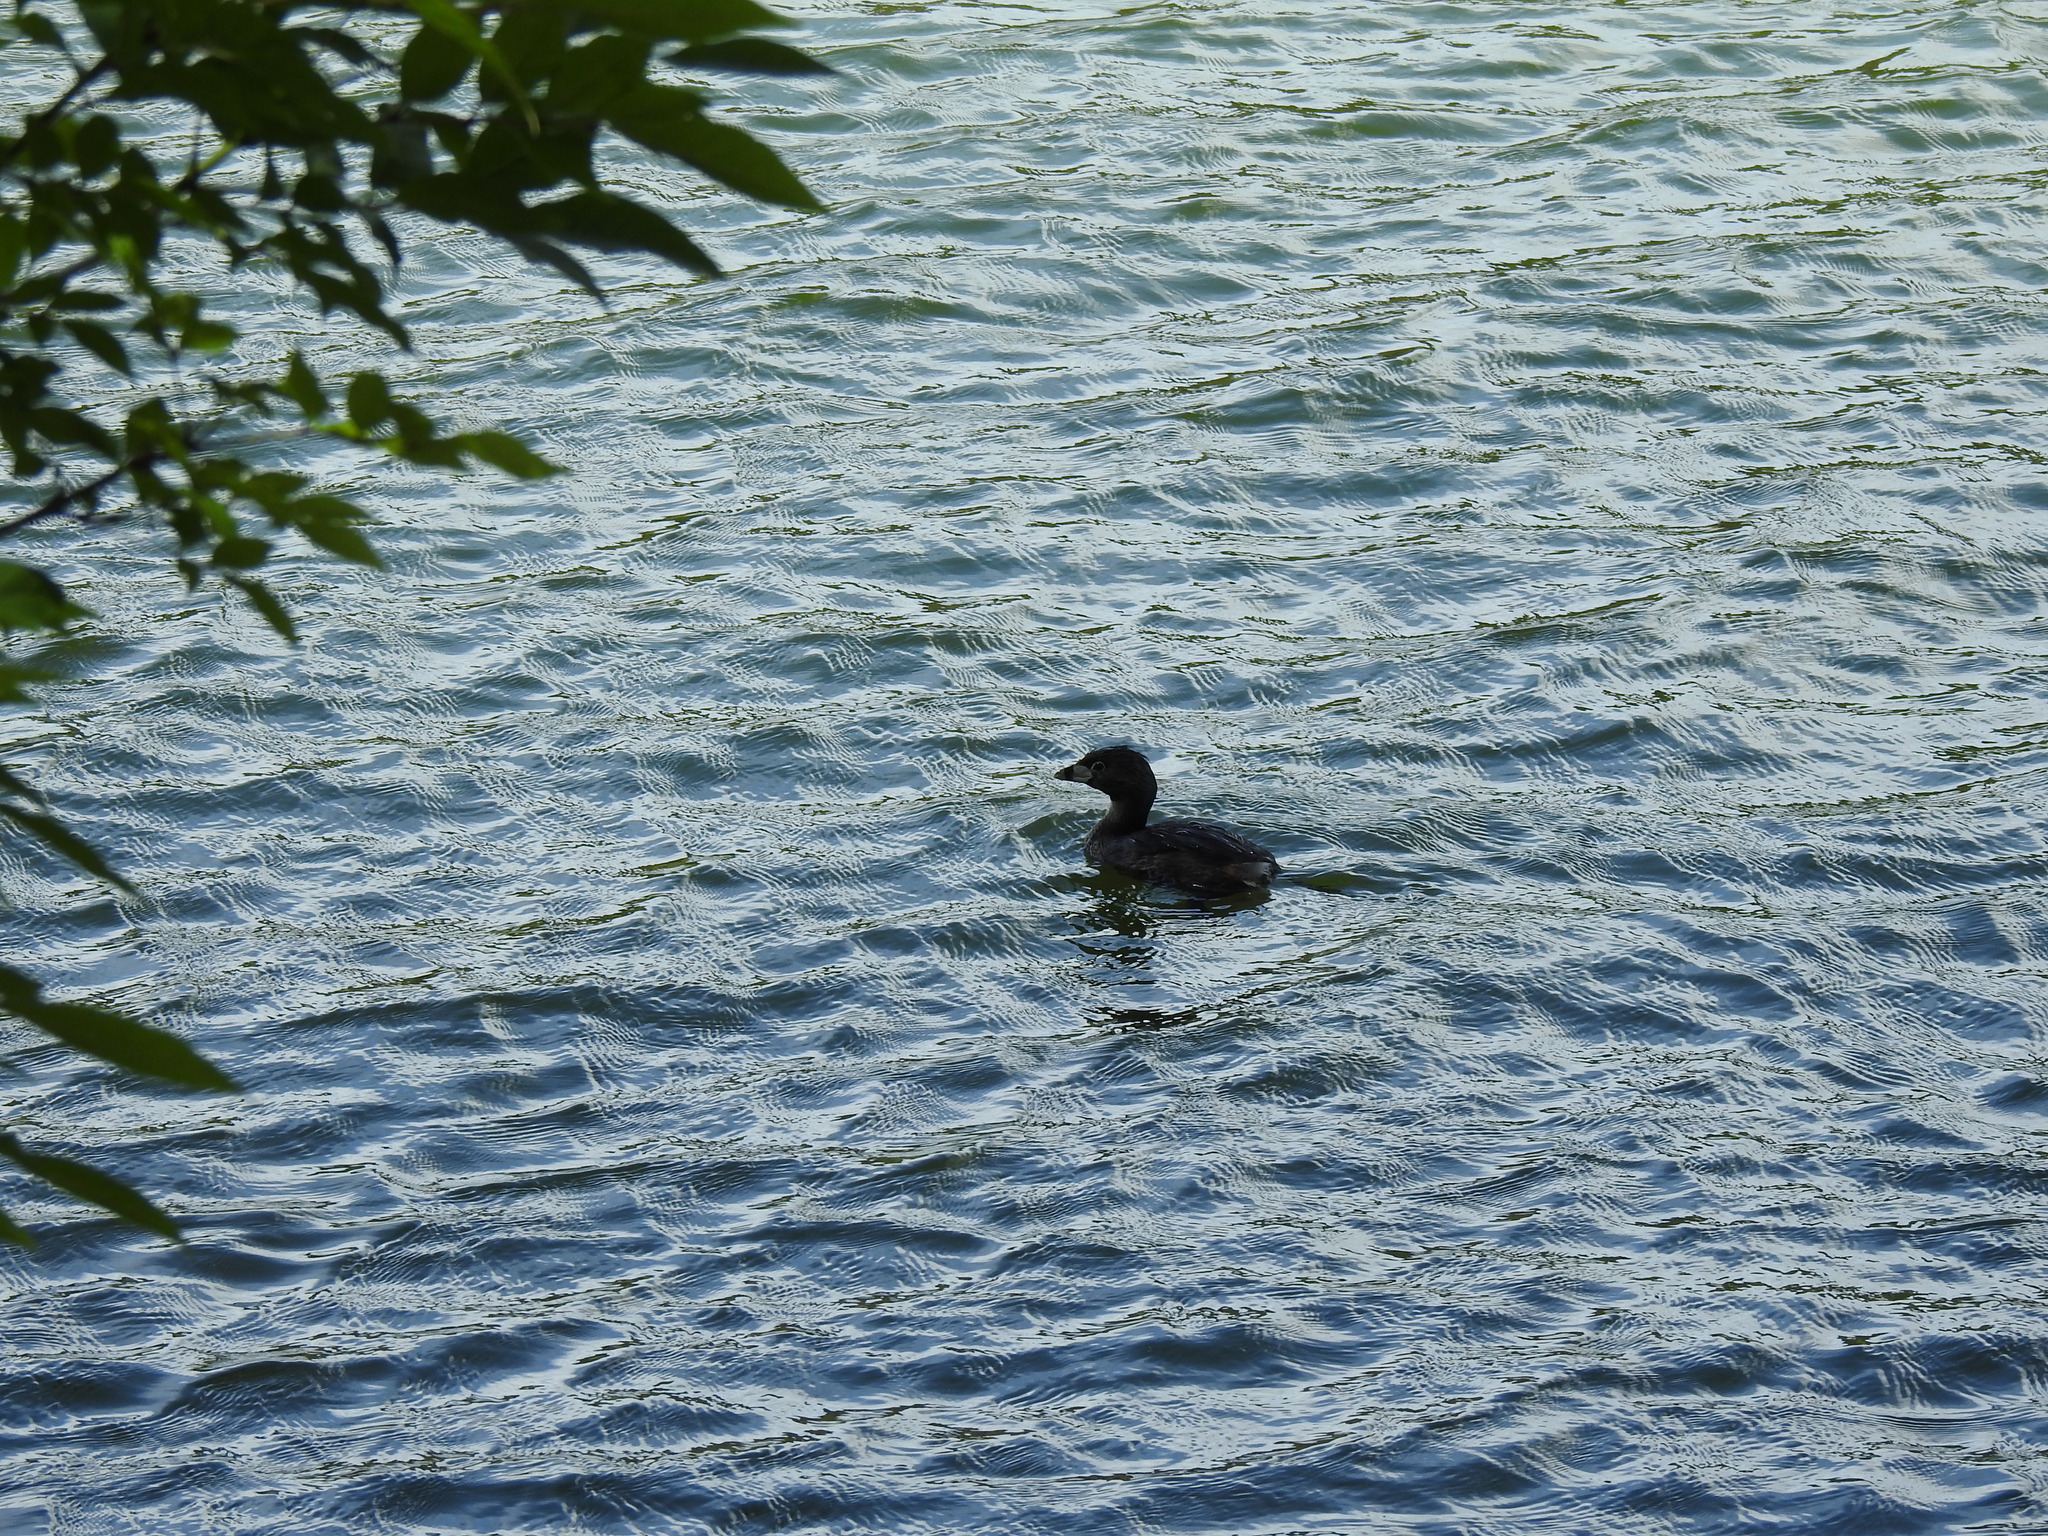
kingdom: Animalia
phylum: Chordata
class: Aves
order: Podicipediformes
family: Podicipedidae
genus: Podilymbus
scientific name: Podilymbus podiceps
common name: Pied-billed grebe
